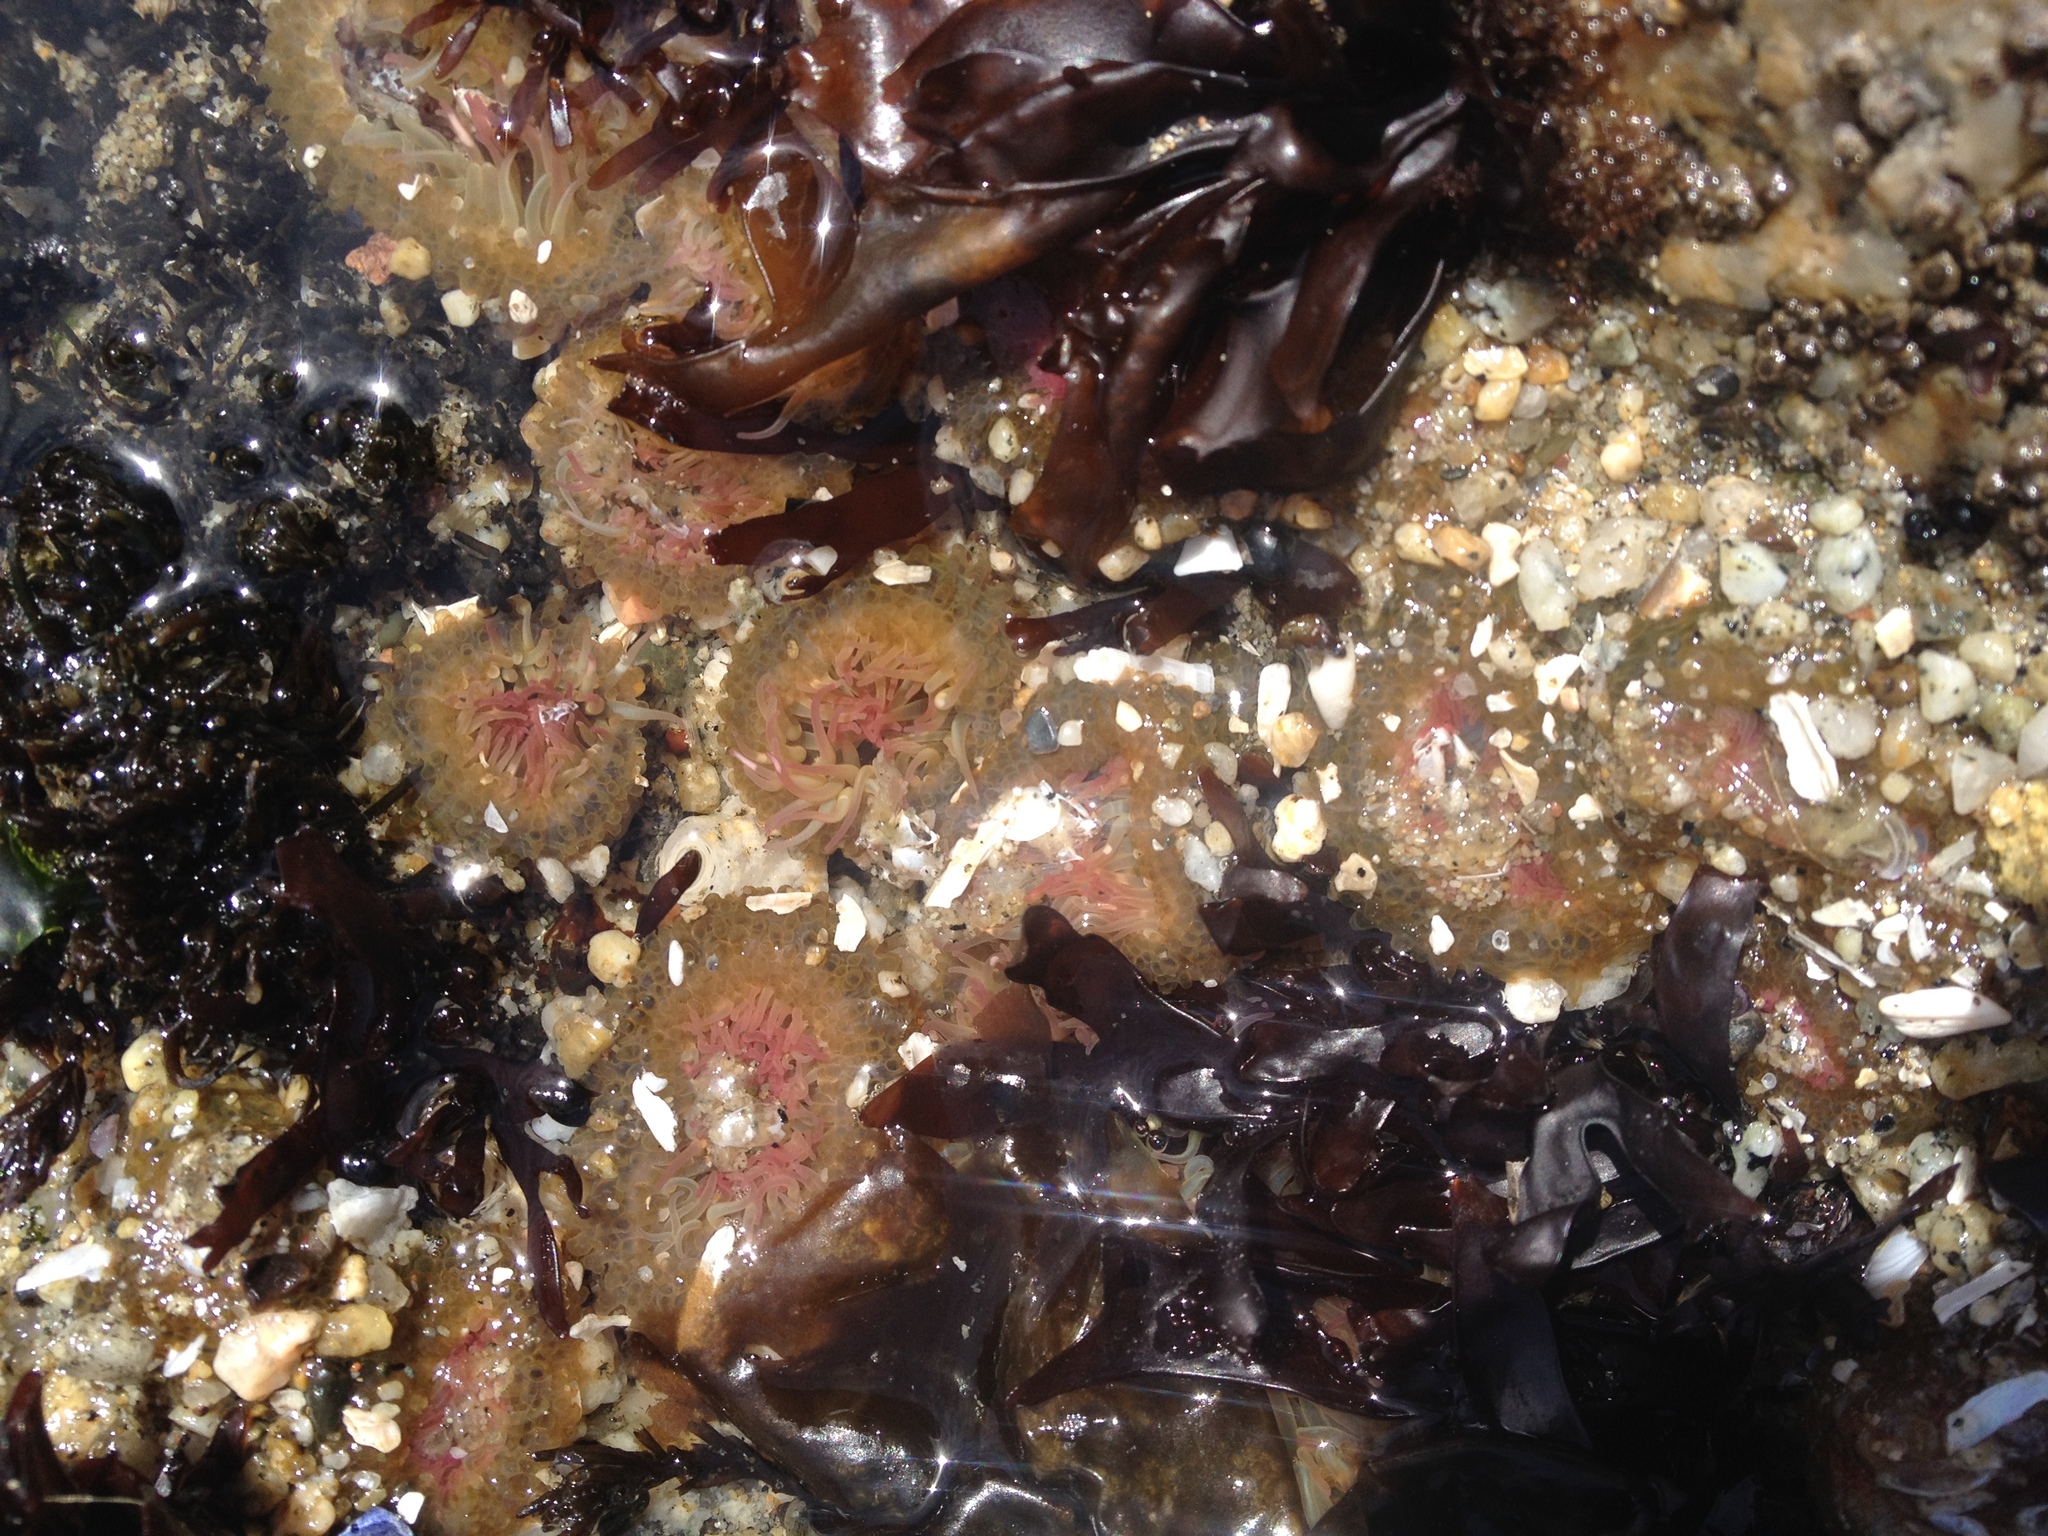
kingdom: Animalia
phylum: Cnidaria
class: Anthozoa
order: Actiniaria
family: Actiniidae
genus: Anthopleura
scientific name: Anthopleura elegantissima
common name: Clonal anemone
